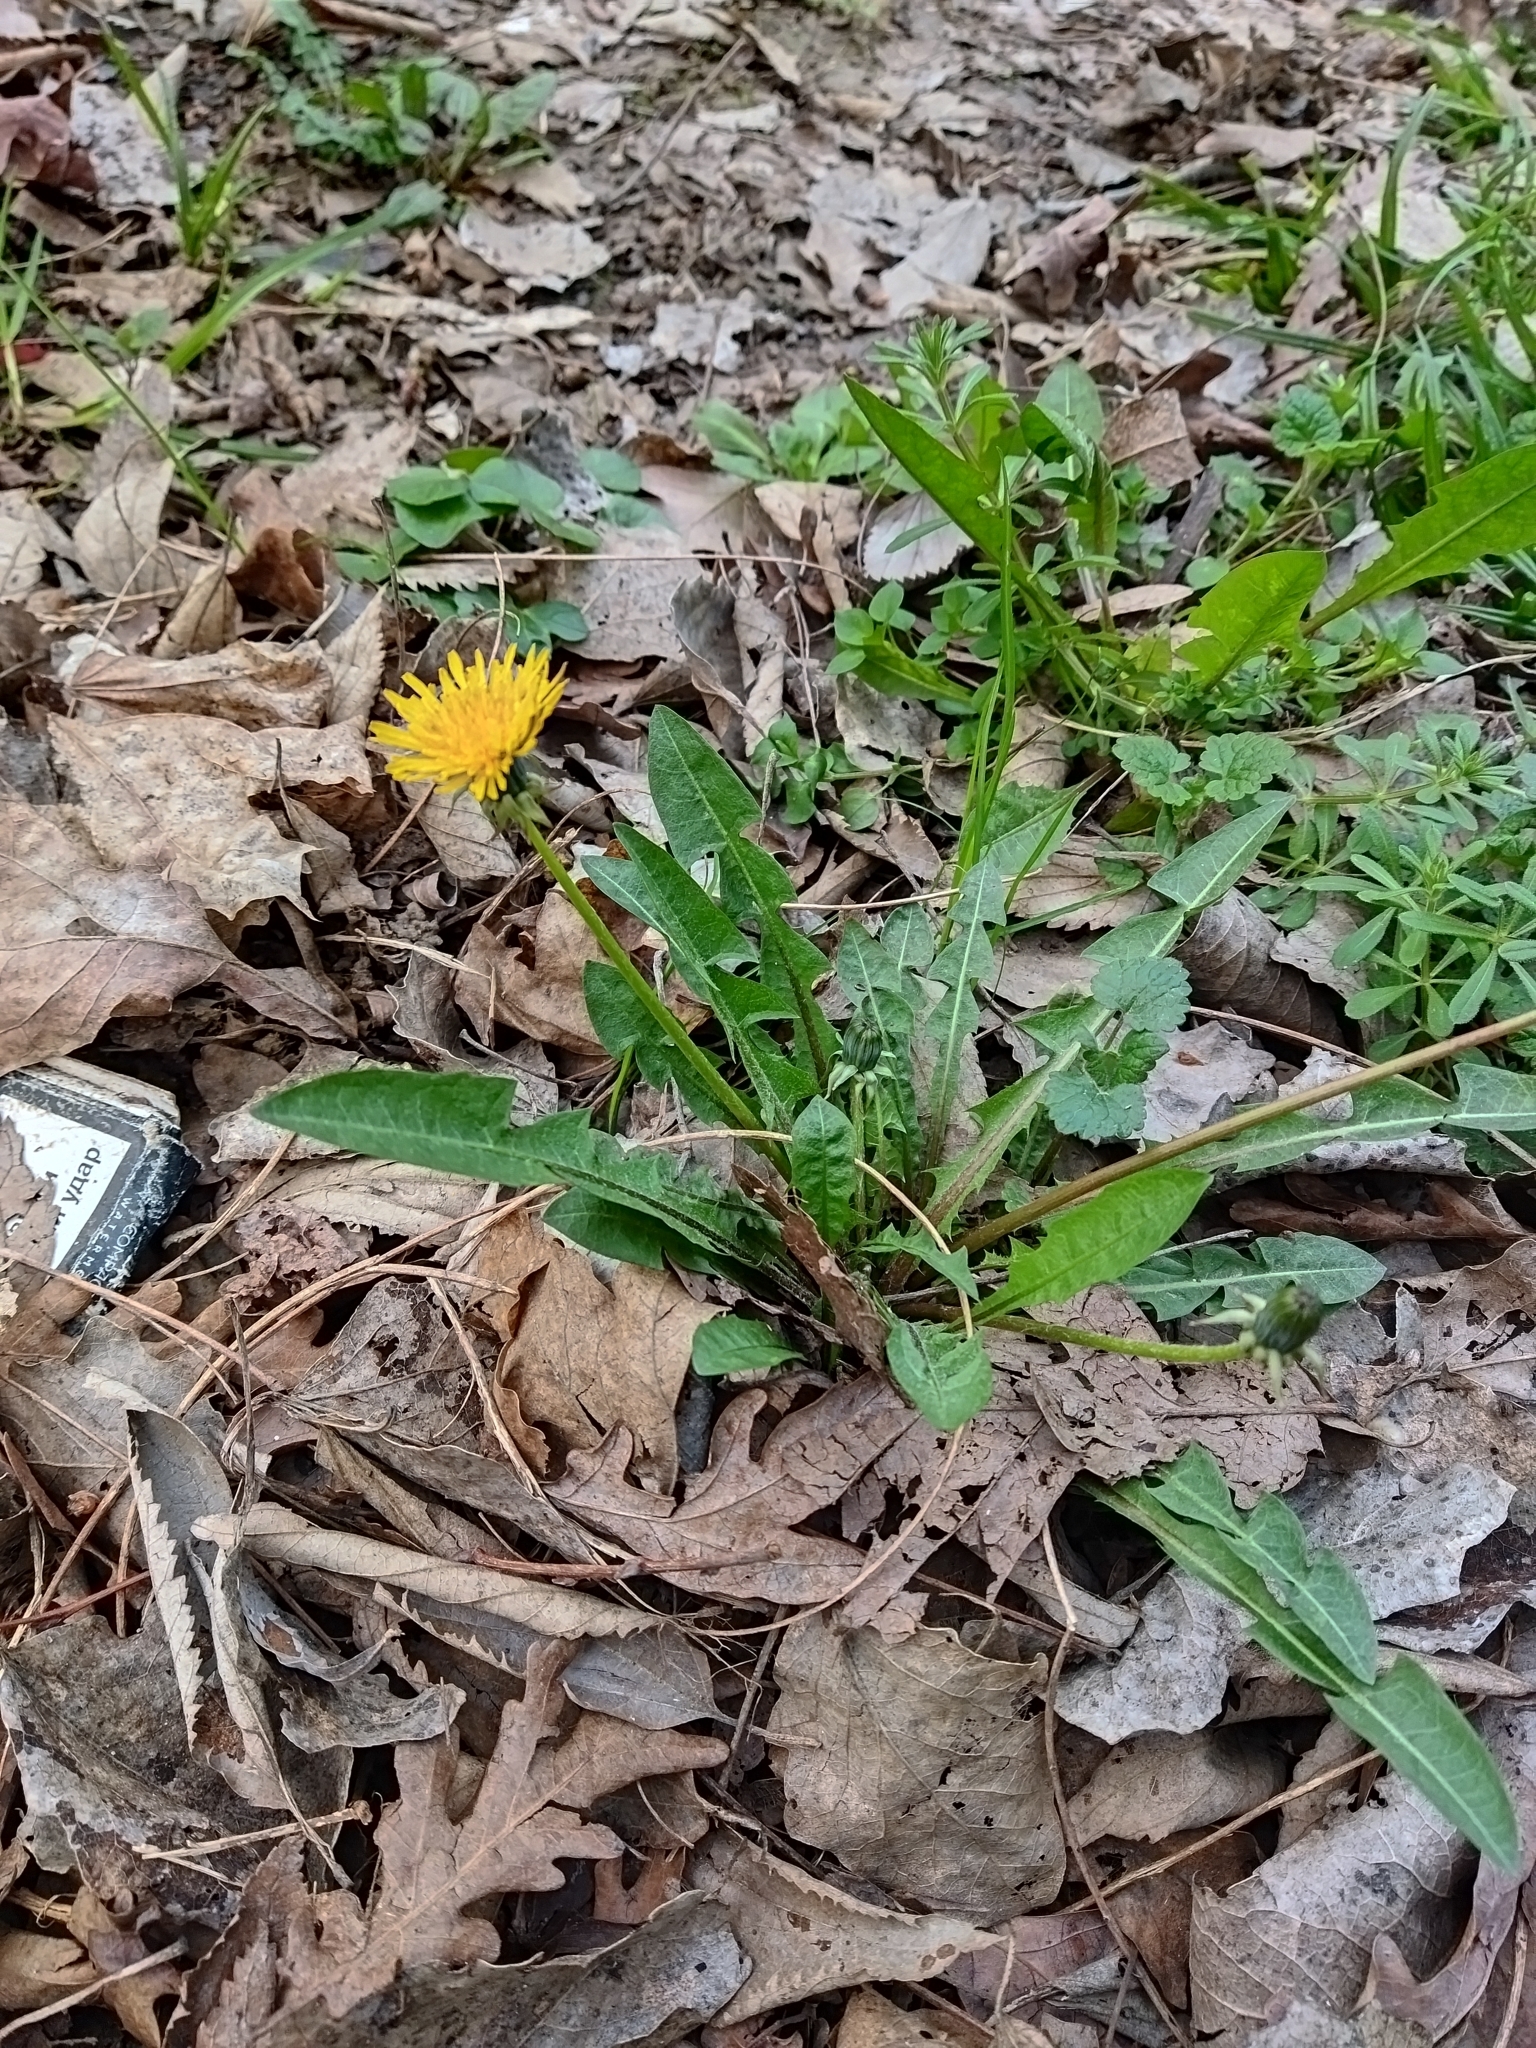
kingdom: Plantae
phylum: Tracheophyta
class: Magnoliopsida
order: Asterales
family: Asteraceae
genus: Taraxacum
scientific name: Taraxacum officinale
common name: Common dandelion
